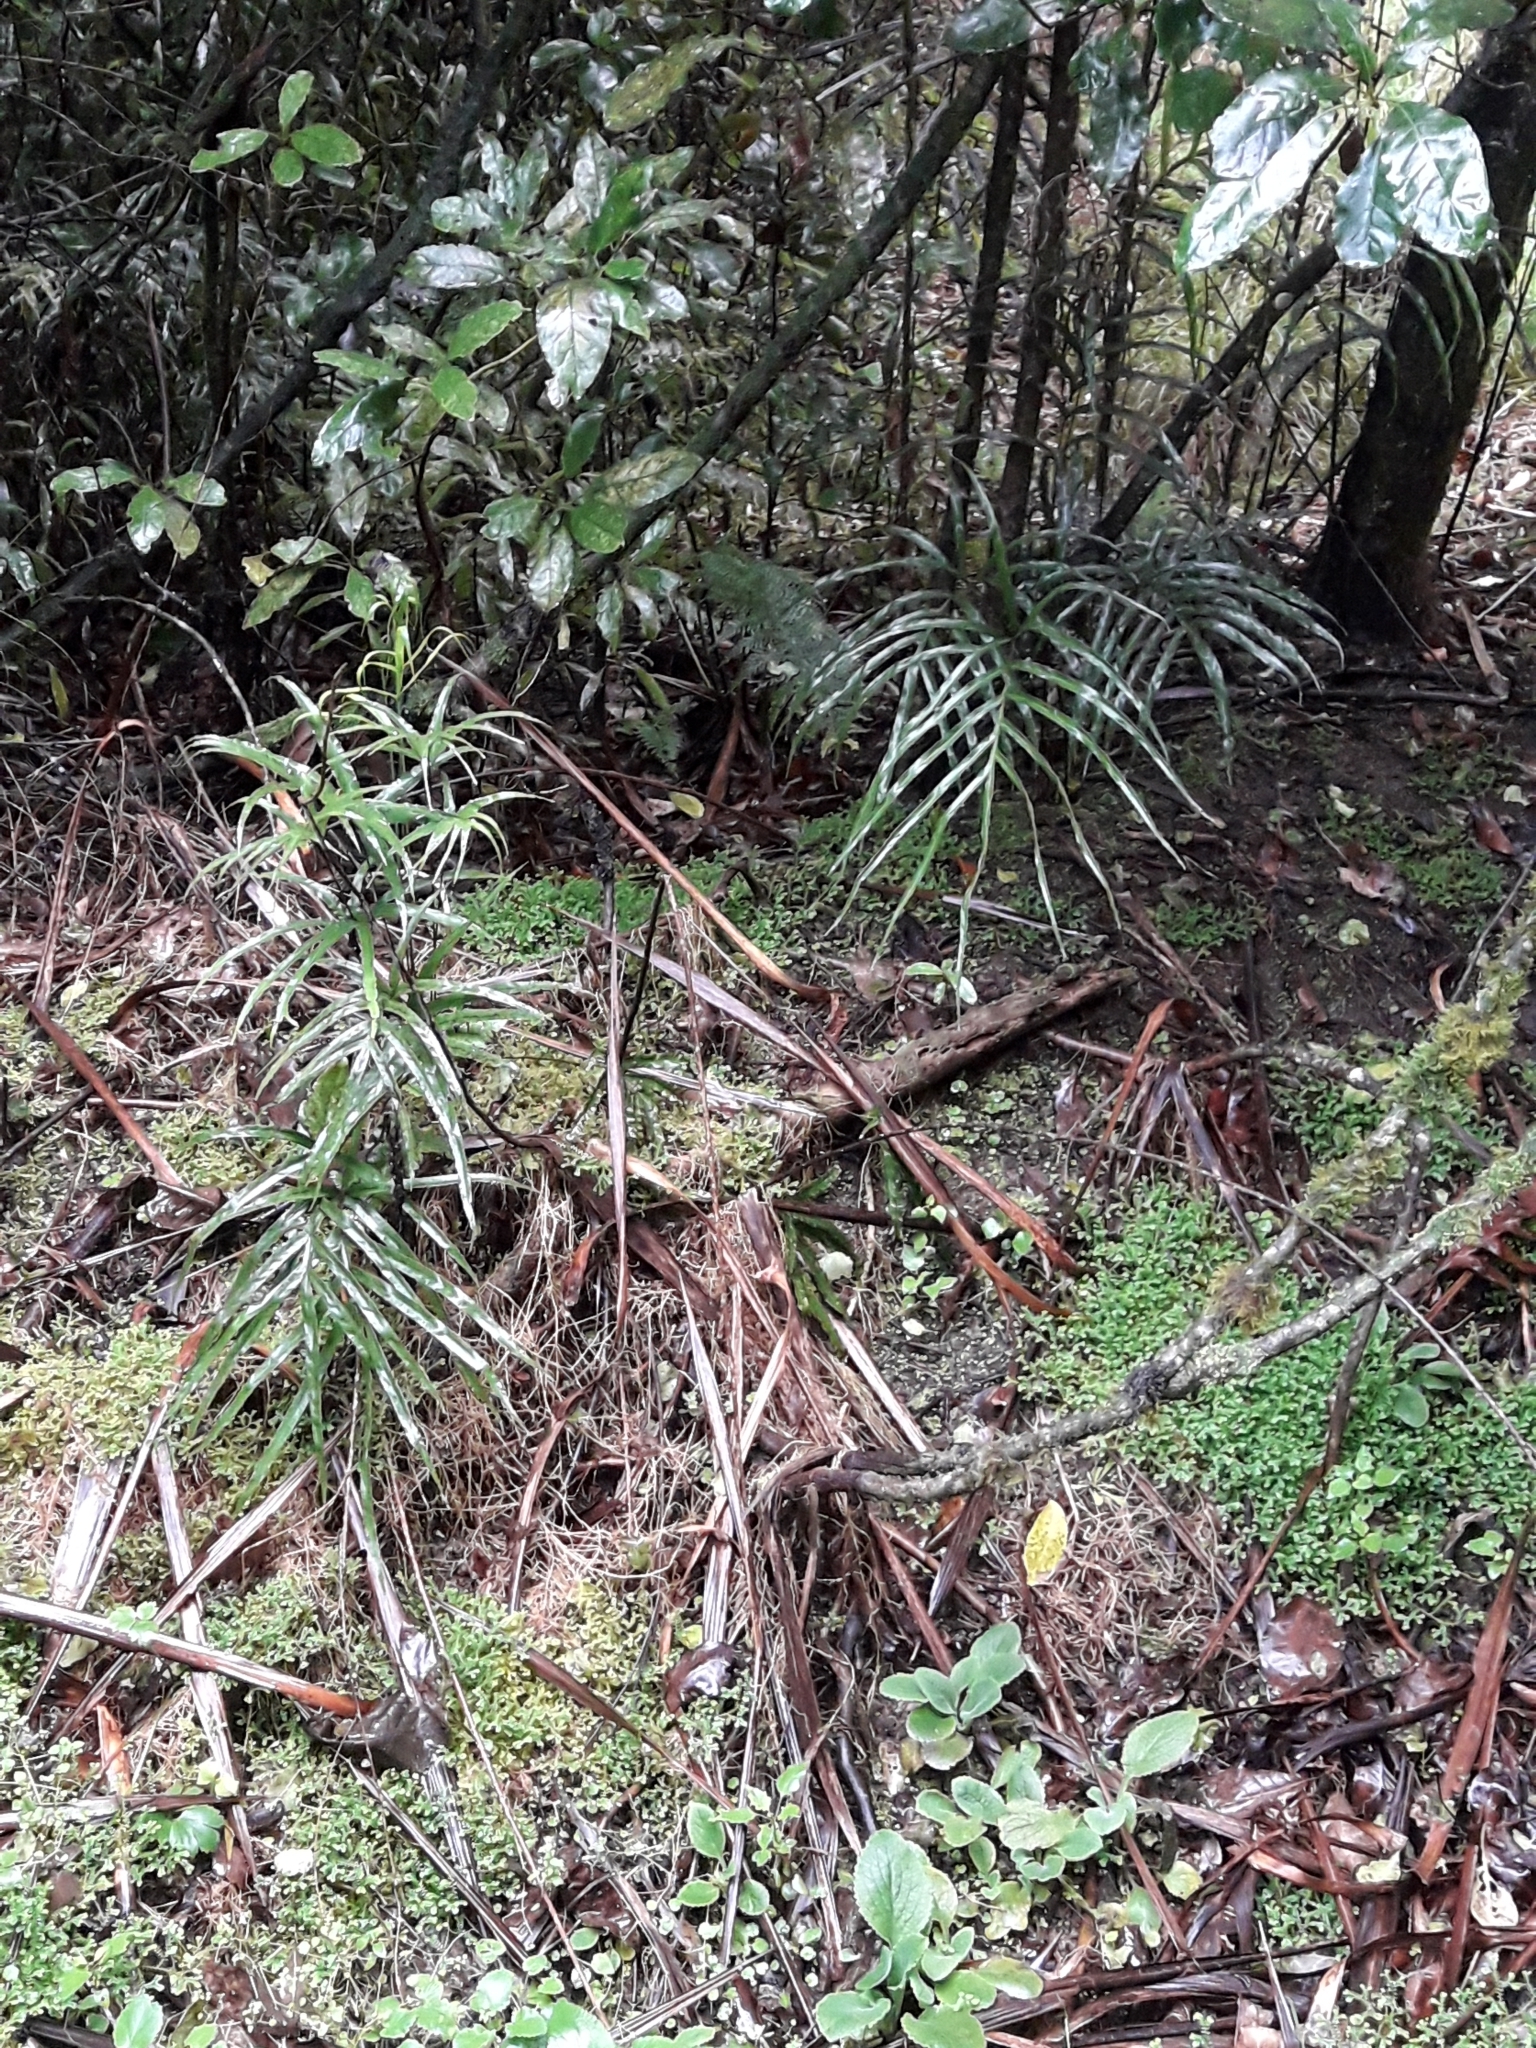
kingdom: Plantae
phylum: Tracheophyta
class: Polypodiopsida
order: Polypodiales
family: Pteridaceae
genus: Pteris
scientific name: Pteris cretica
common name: Ribbon fern
